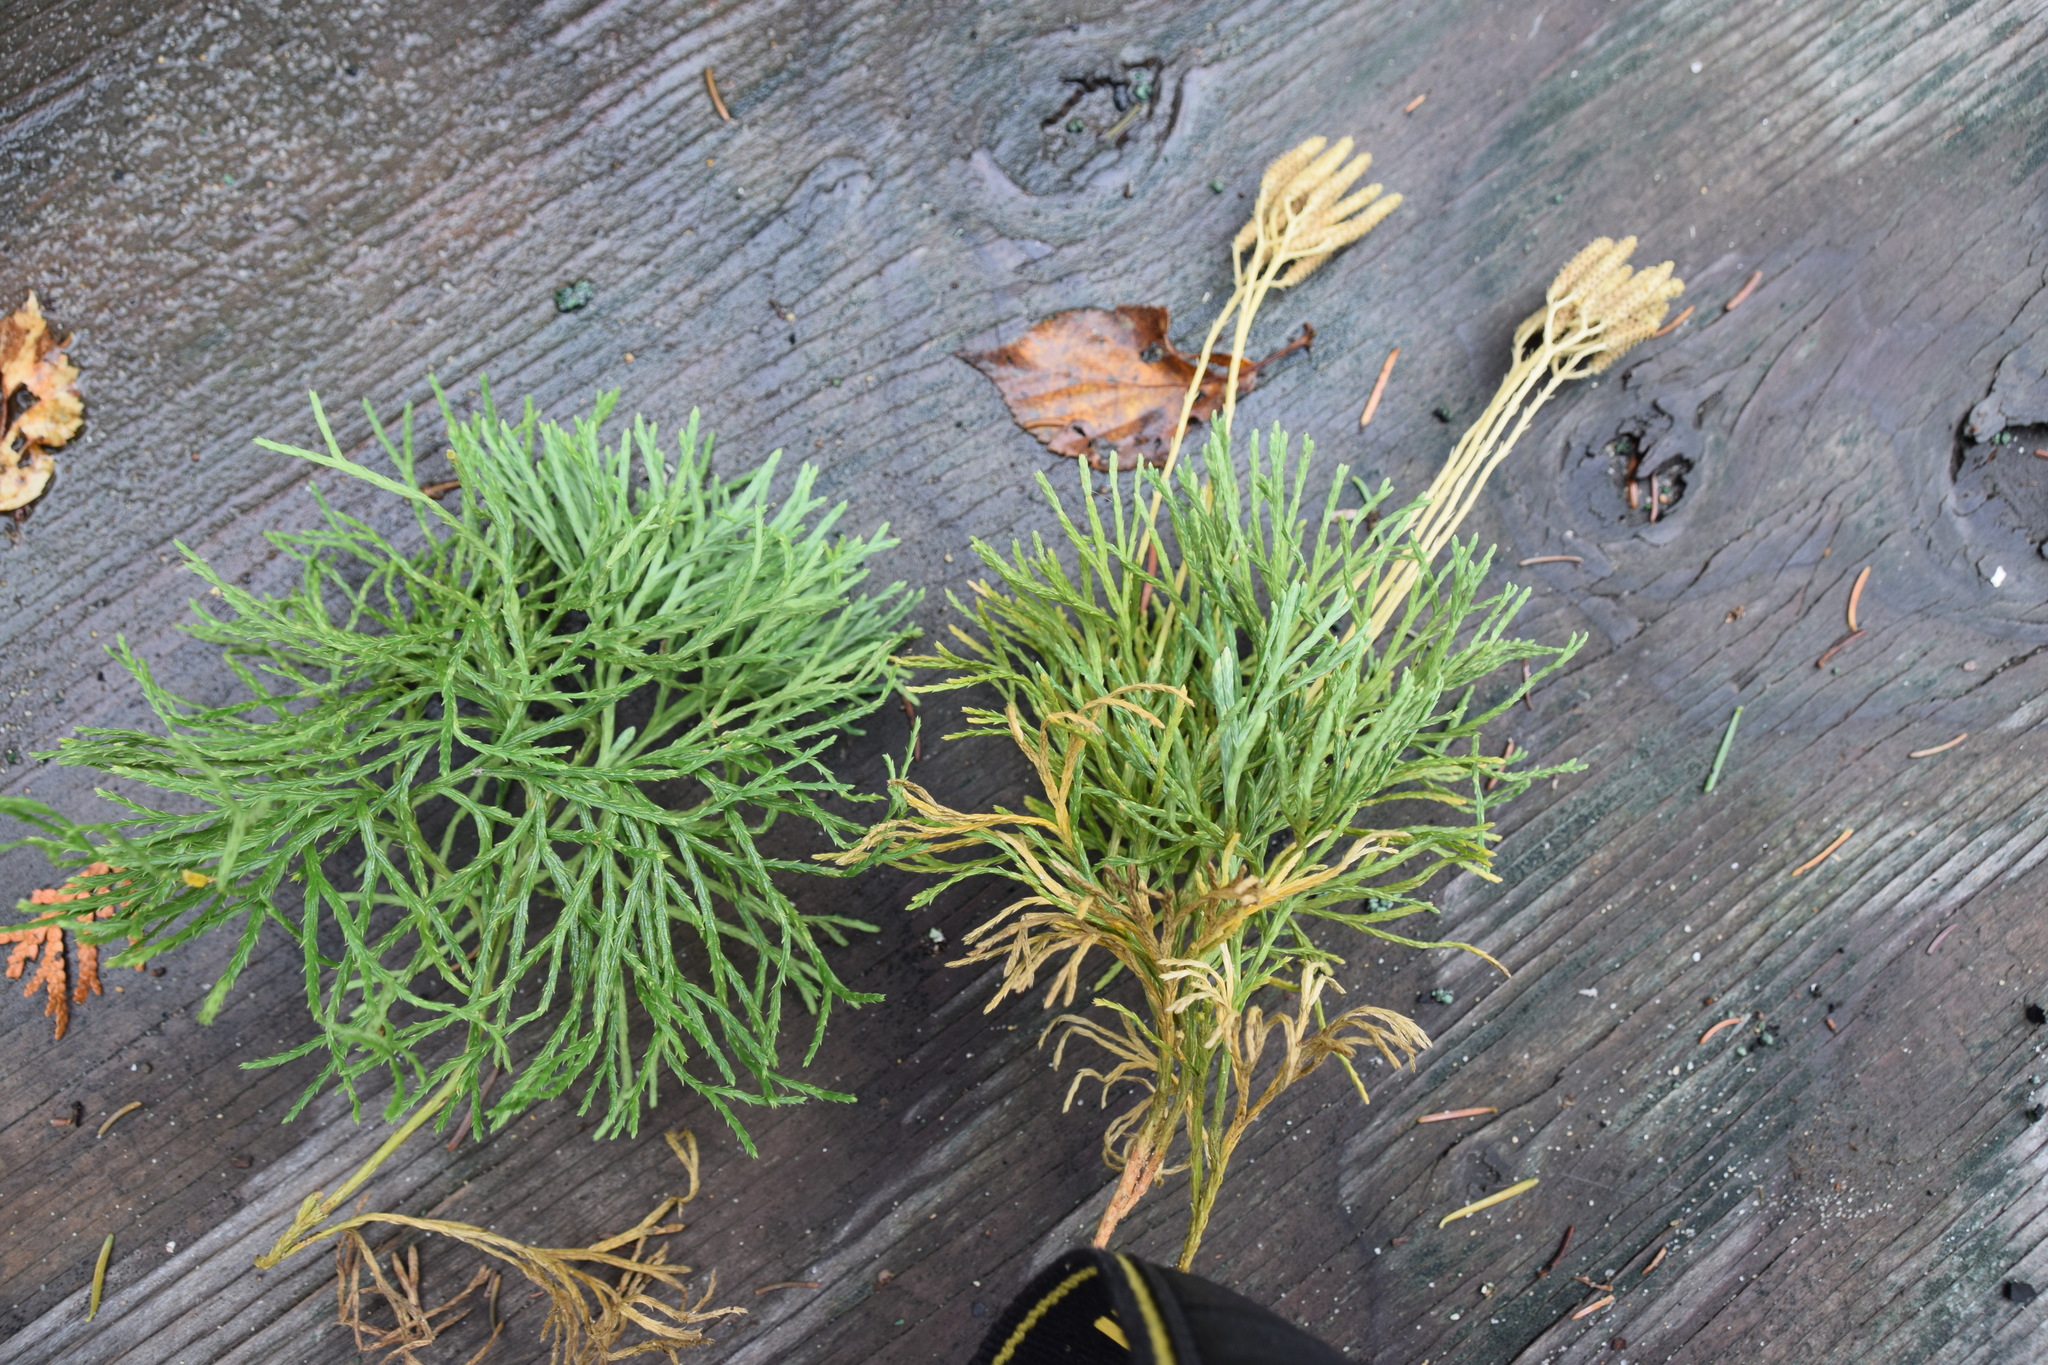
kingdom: Plantae
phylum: Tracheophyta
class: Lycopodiopsida
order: Lycopodiales
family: Lycopodiaceae
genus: Diphasiastrum
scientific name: Diphasiastrum tristachyum
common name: Blue ground-cedar
